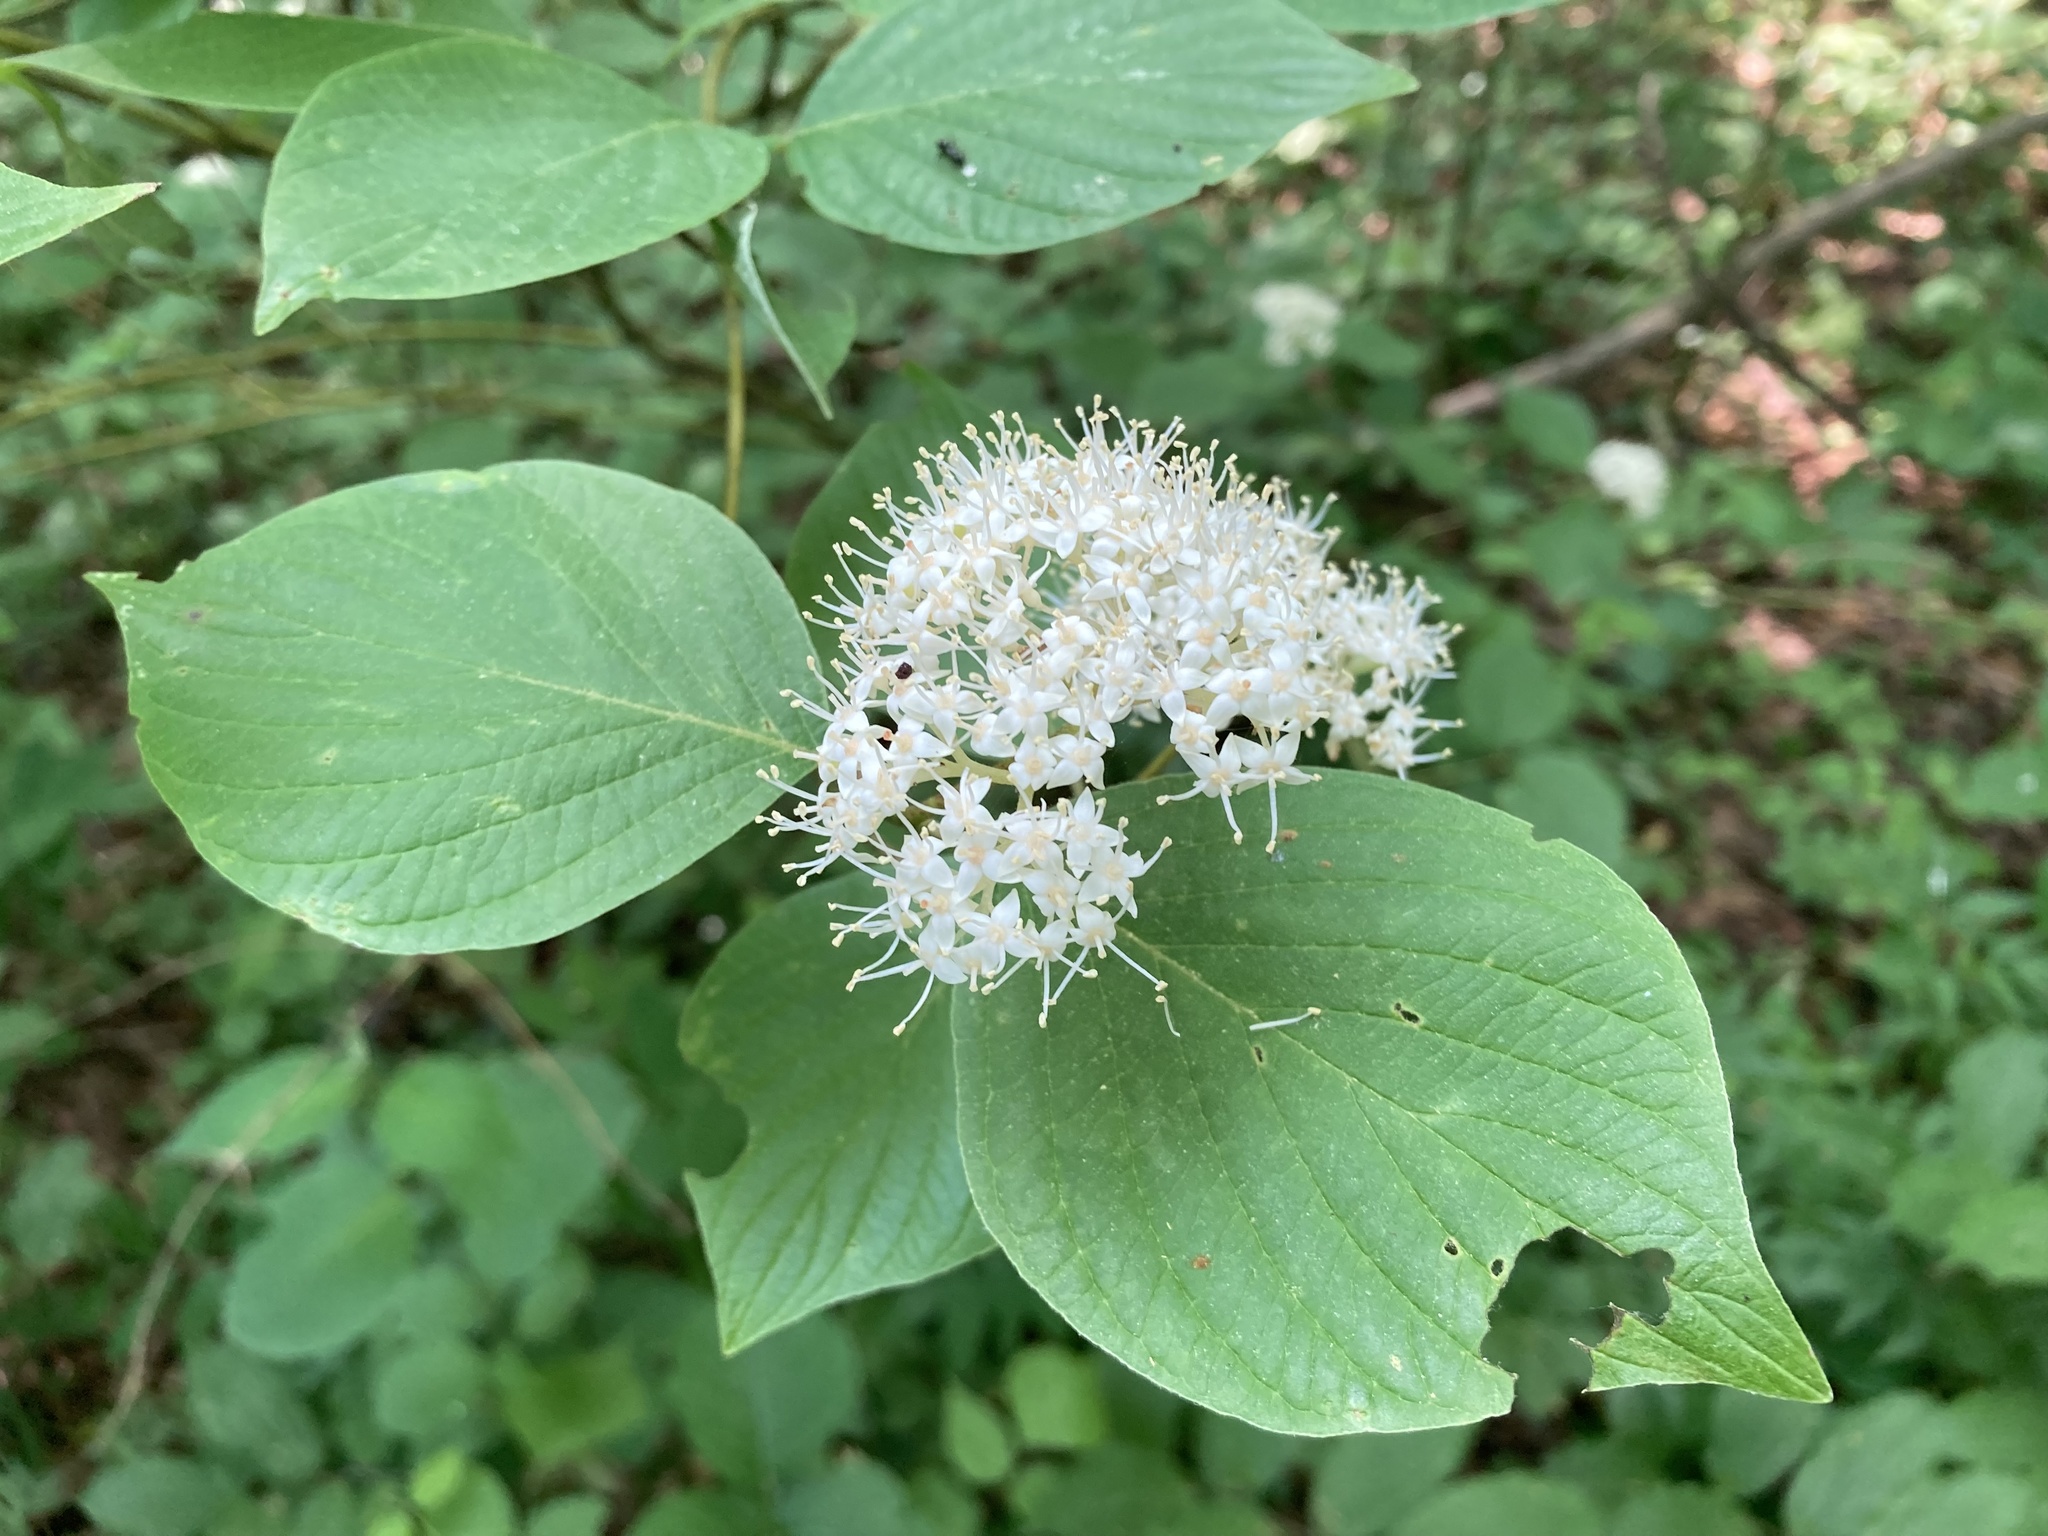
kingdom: Plantae
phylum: Tracheophyta
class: Magnoliopsida
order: Cornales
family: Cornaceae
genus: Cornus
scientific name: Cornus rugosa
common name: Round-leaf dogwood
